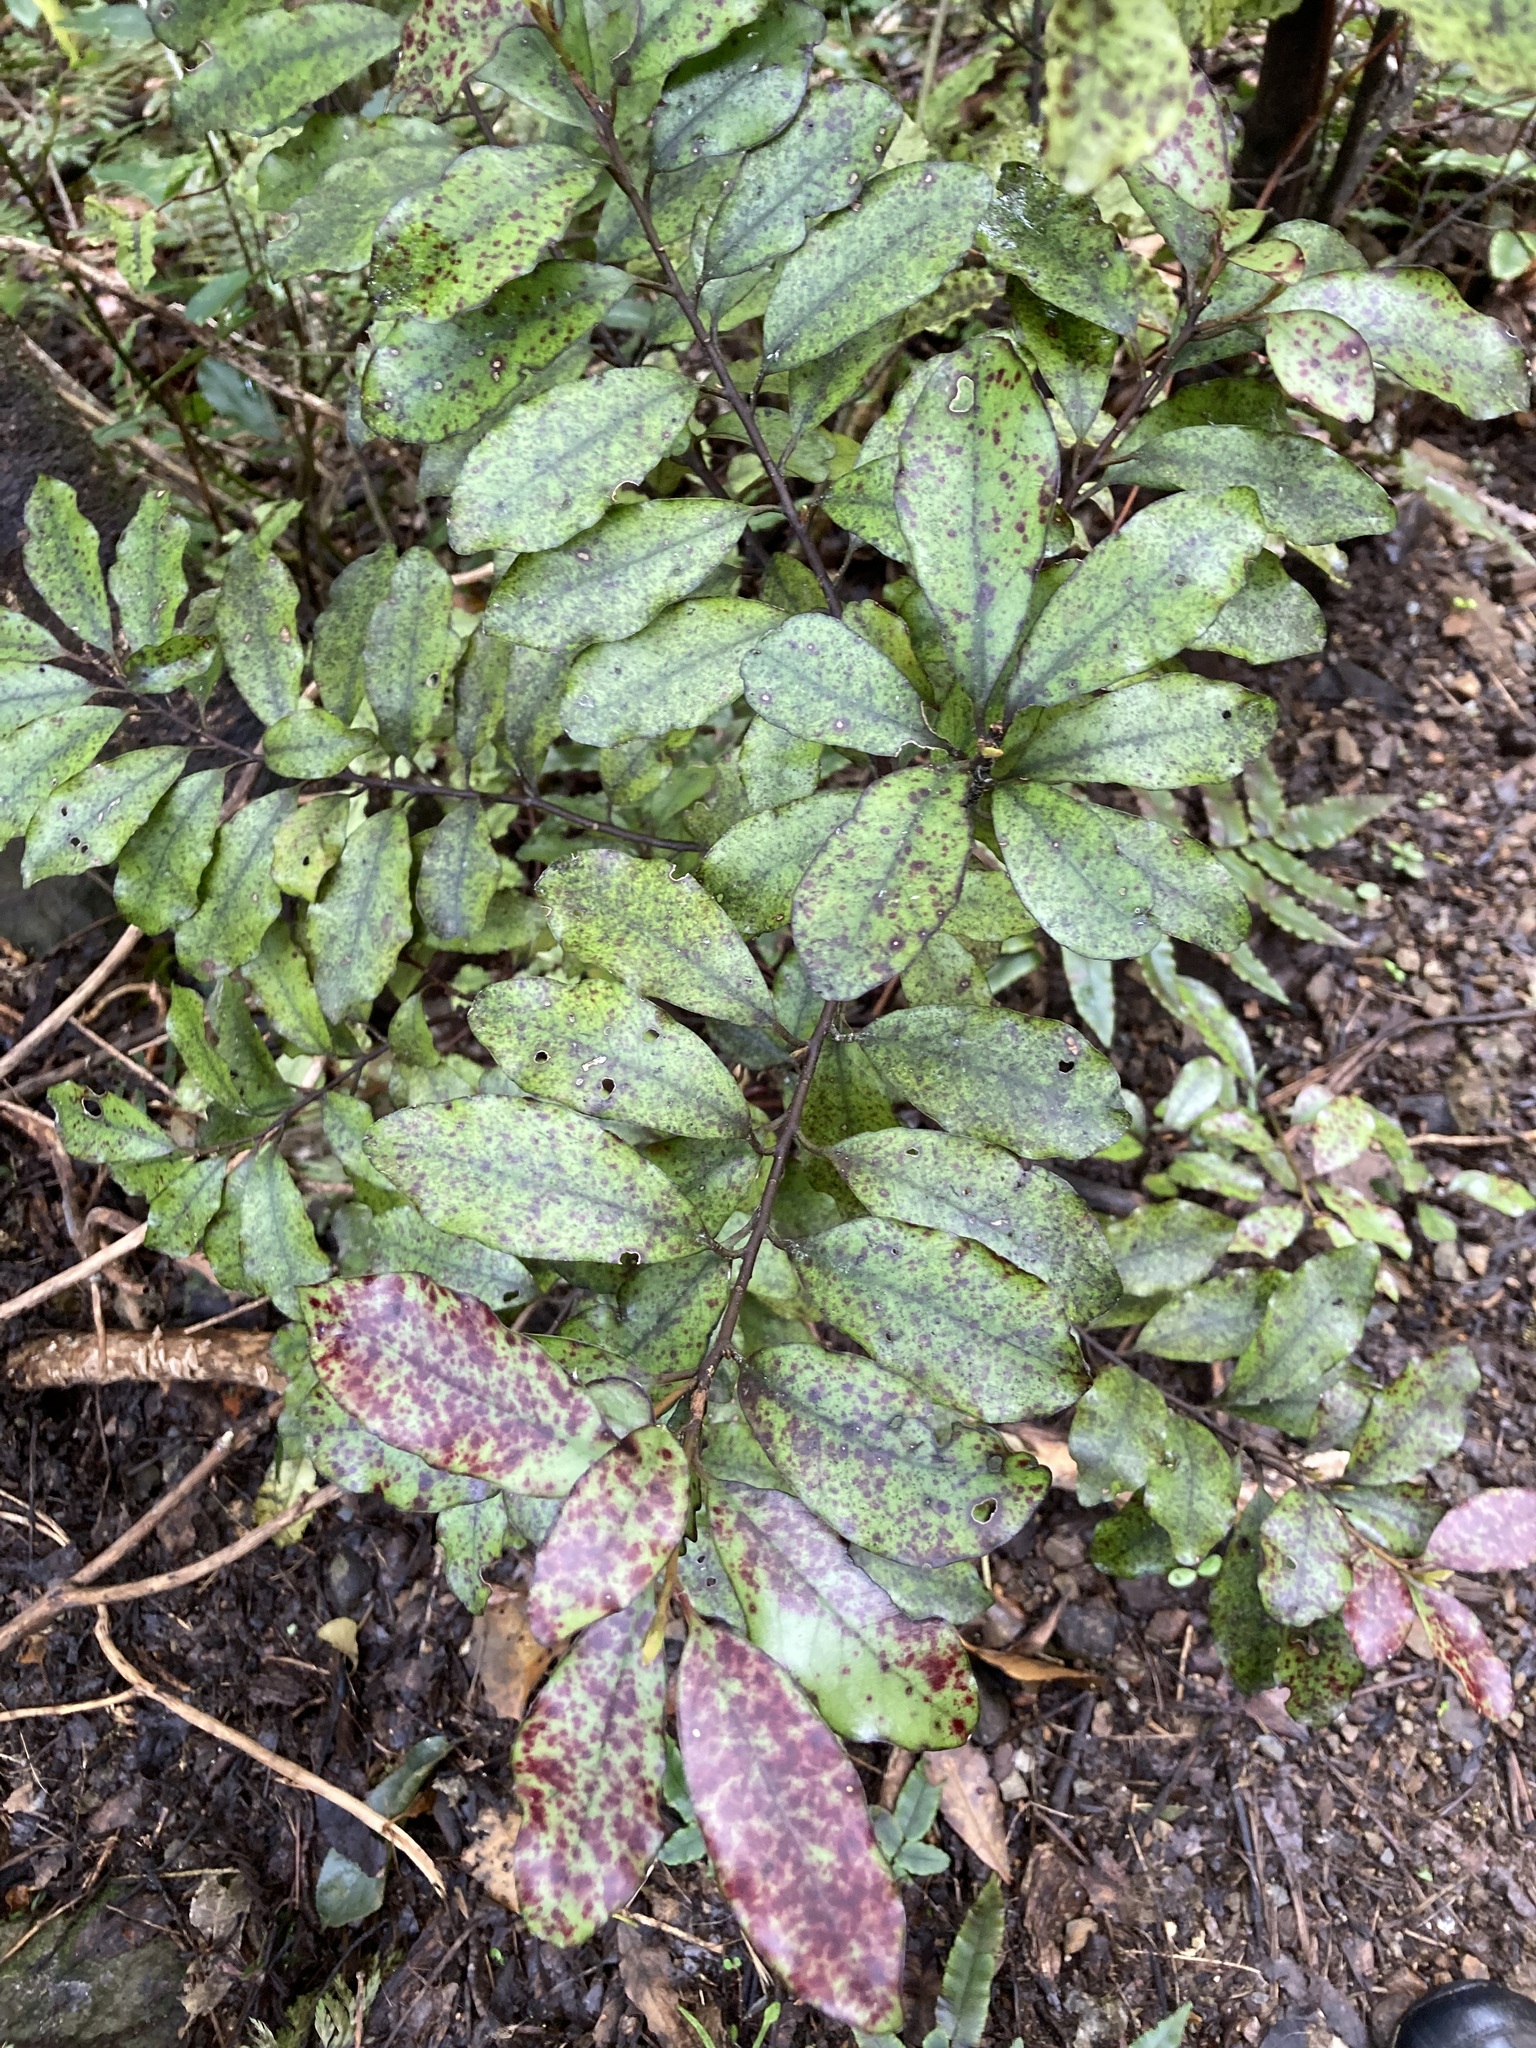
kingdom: Plantae
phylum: Tracheophyta
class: Magnoliopsida
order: Canellales
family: Winteraceae
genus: Pseudowintera
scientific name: Pseudowintera colorata
